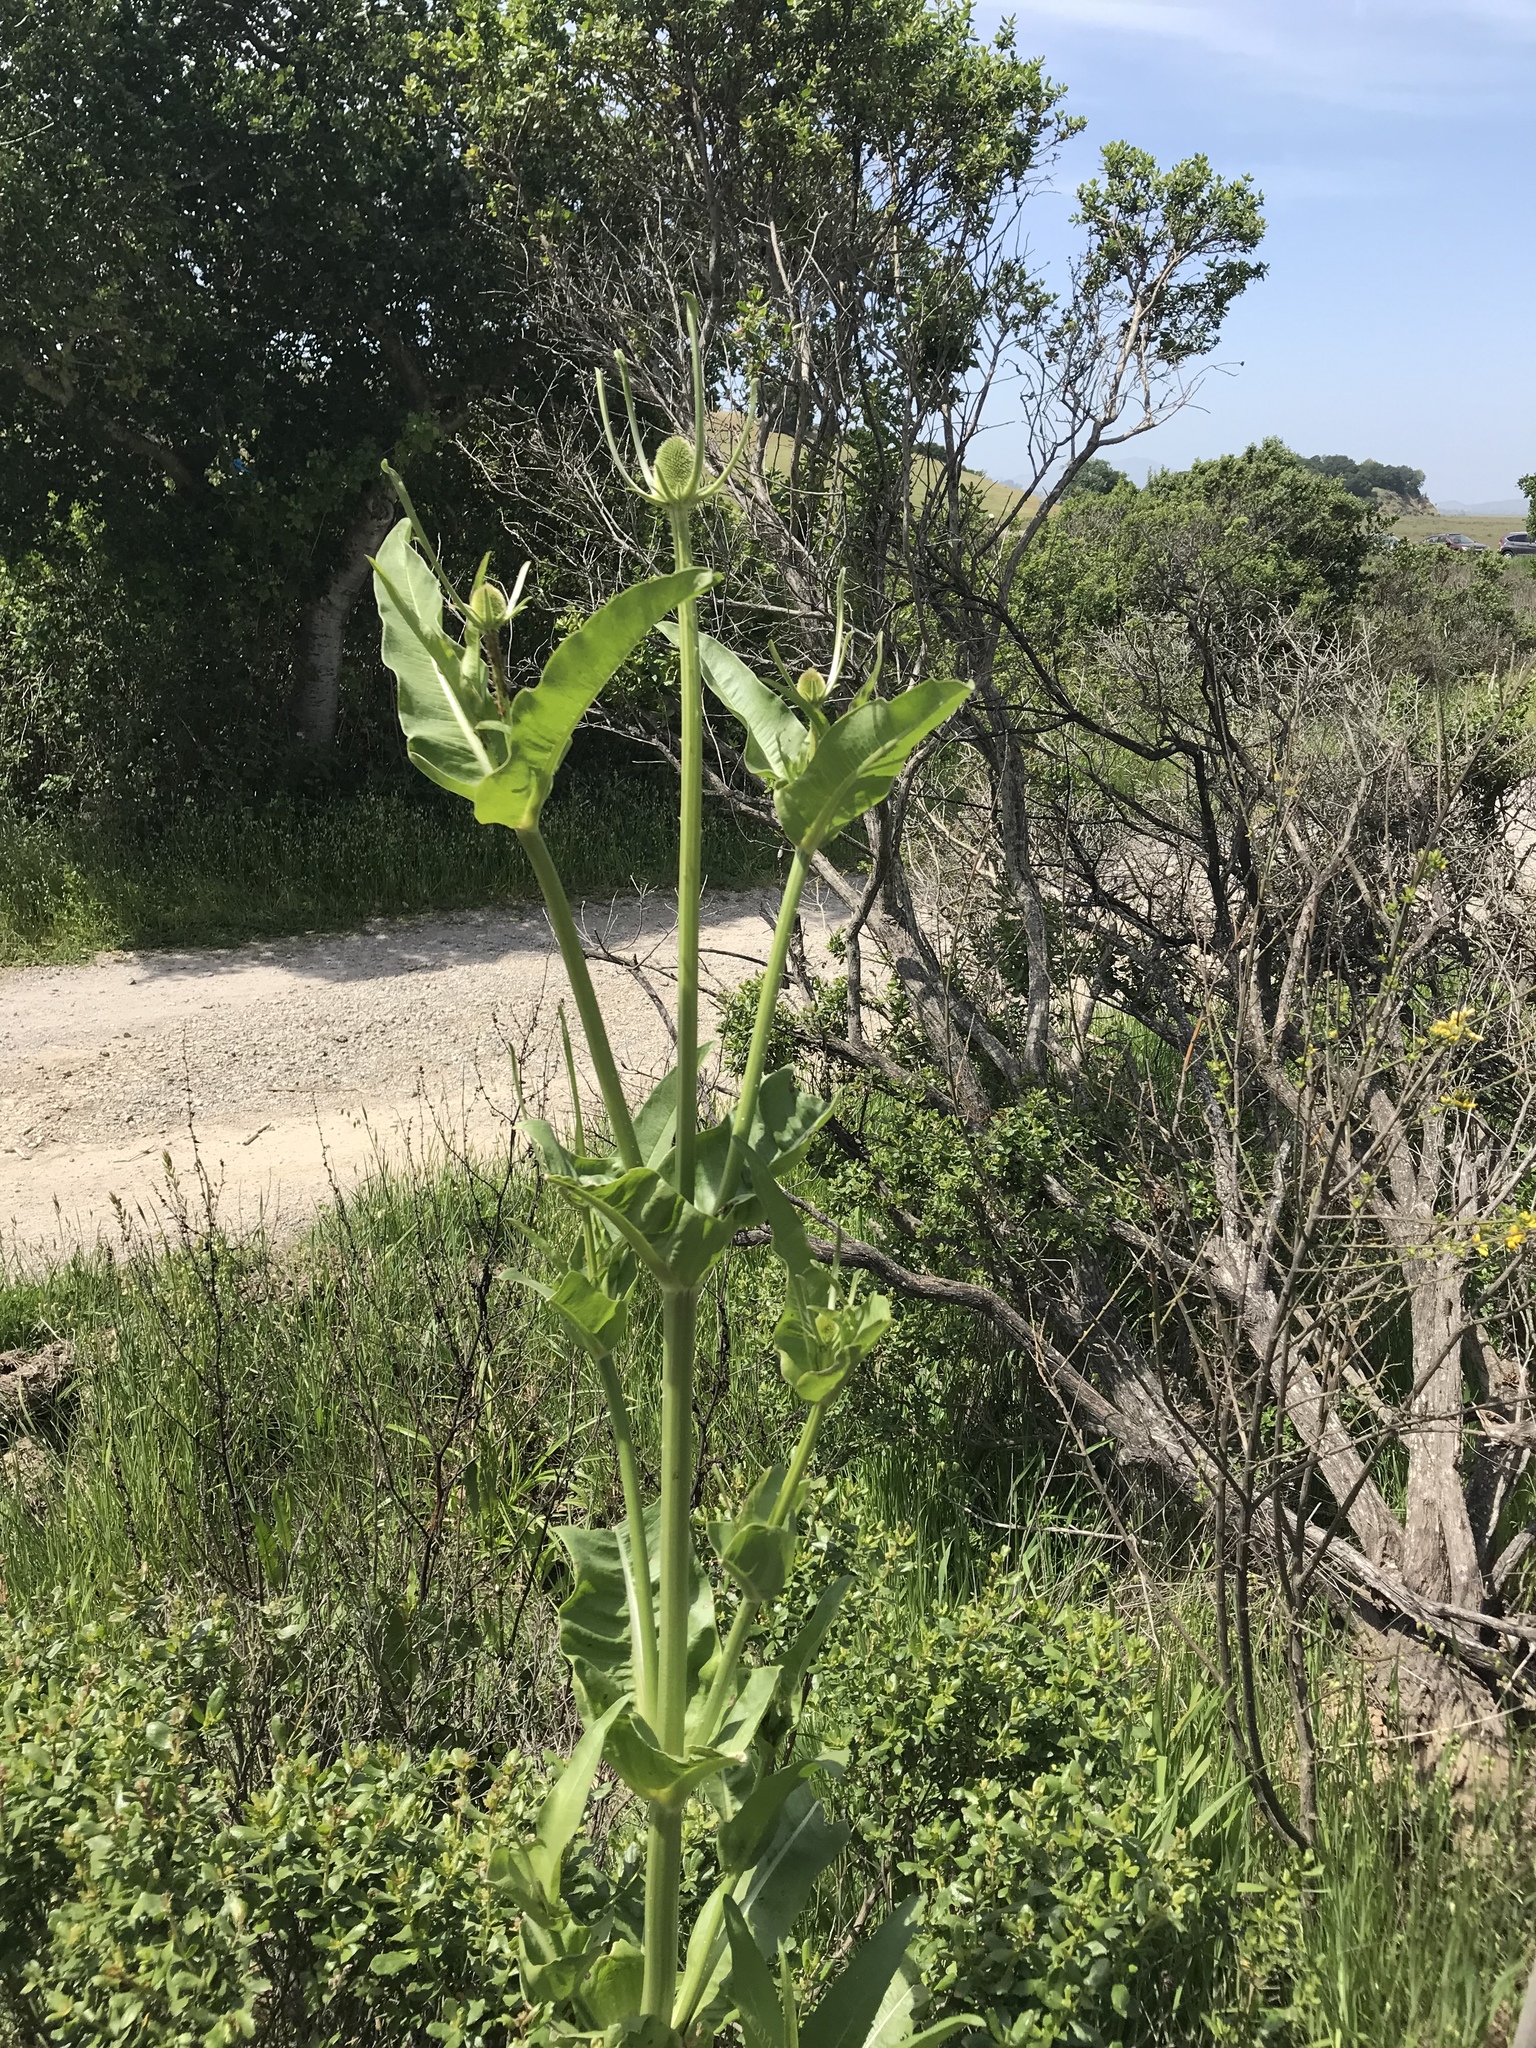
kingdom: Plantae
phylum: Tracheophyta
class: Magnoliopsida
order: Dipsacales
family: Caprifoliaceae
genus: Dipsacus
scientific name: Dipsacus sativus
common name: Fuller's teasel
